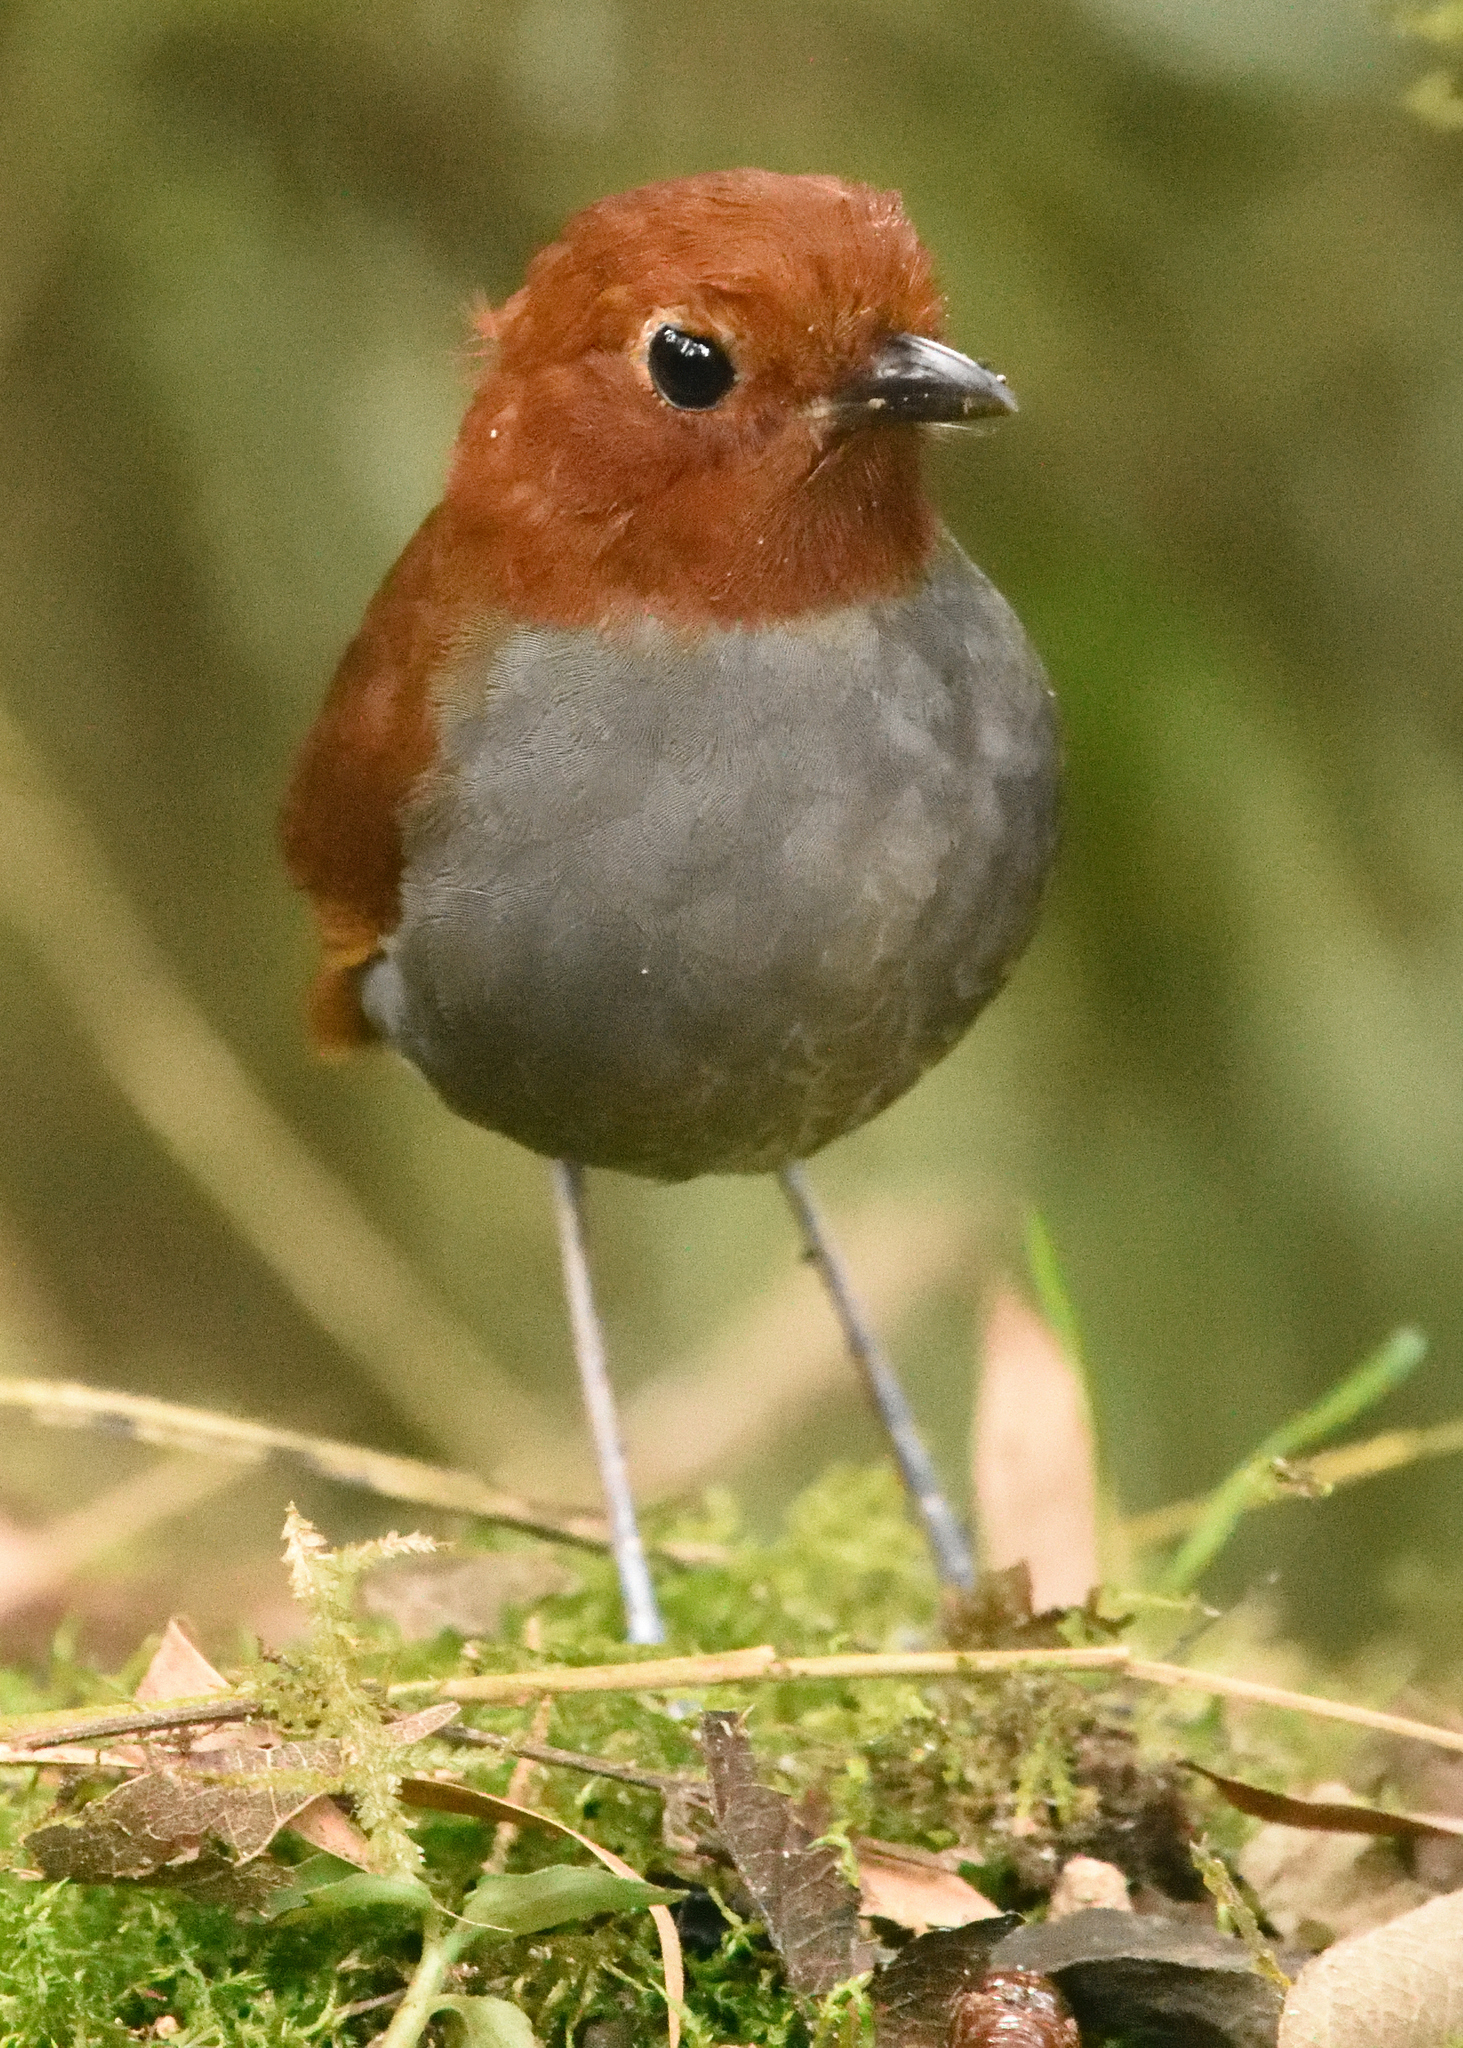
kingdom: Animalia
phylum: Chordata
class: Aves
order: Passeriformes
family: Grallariidae
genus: Grallaria
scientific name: Grallaria rufocinerea
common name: Bicolored antpitta
